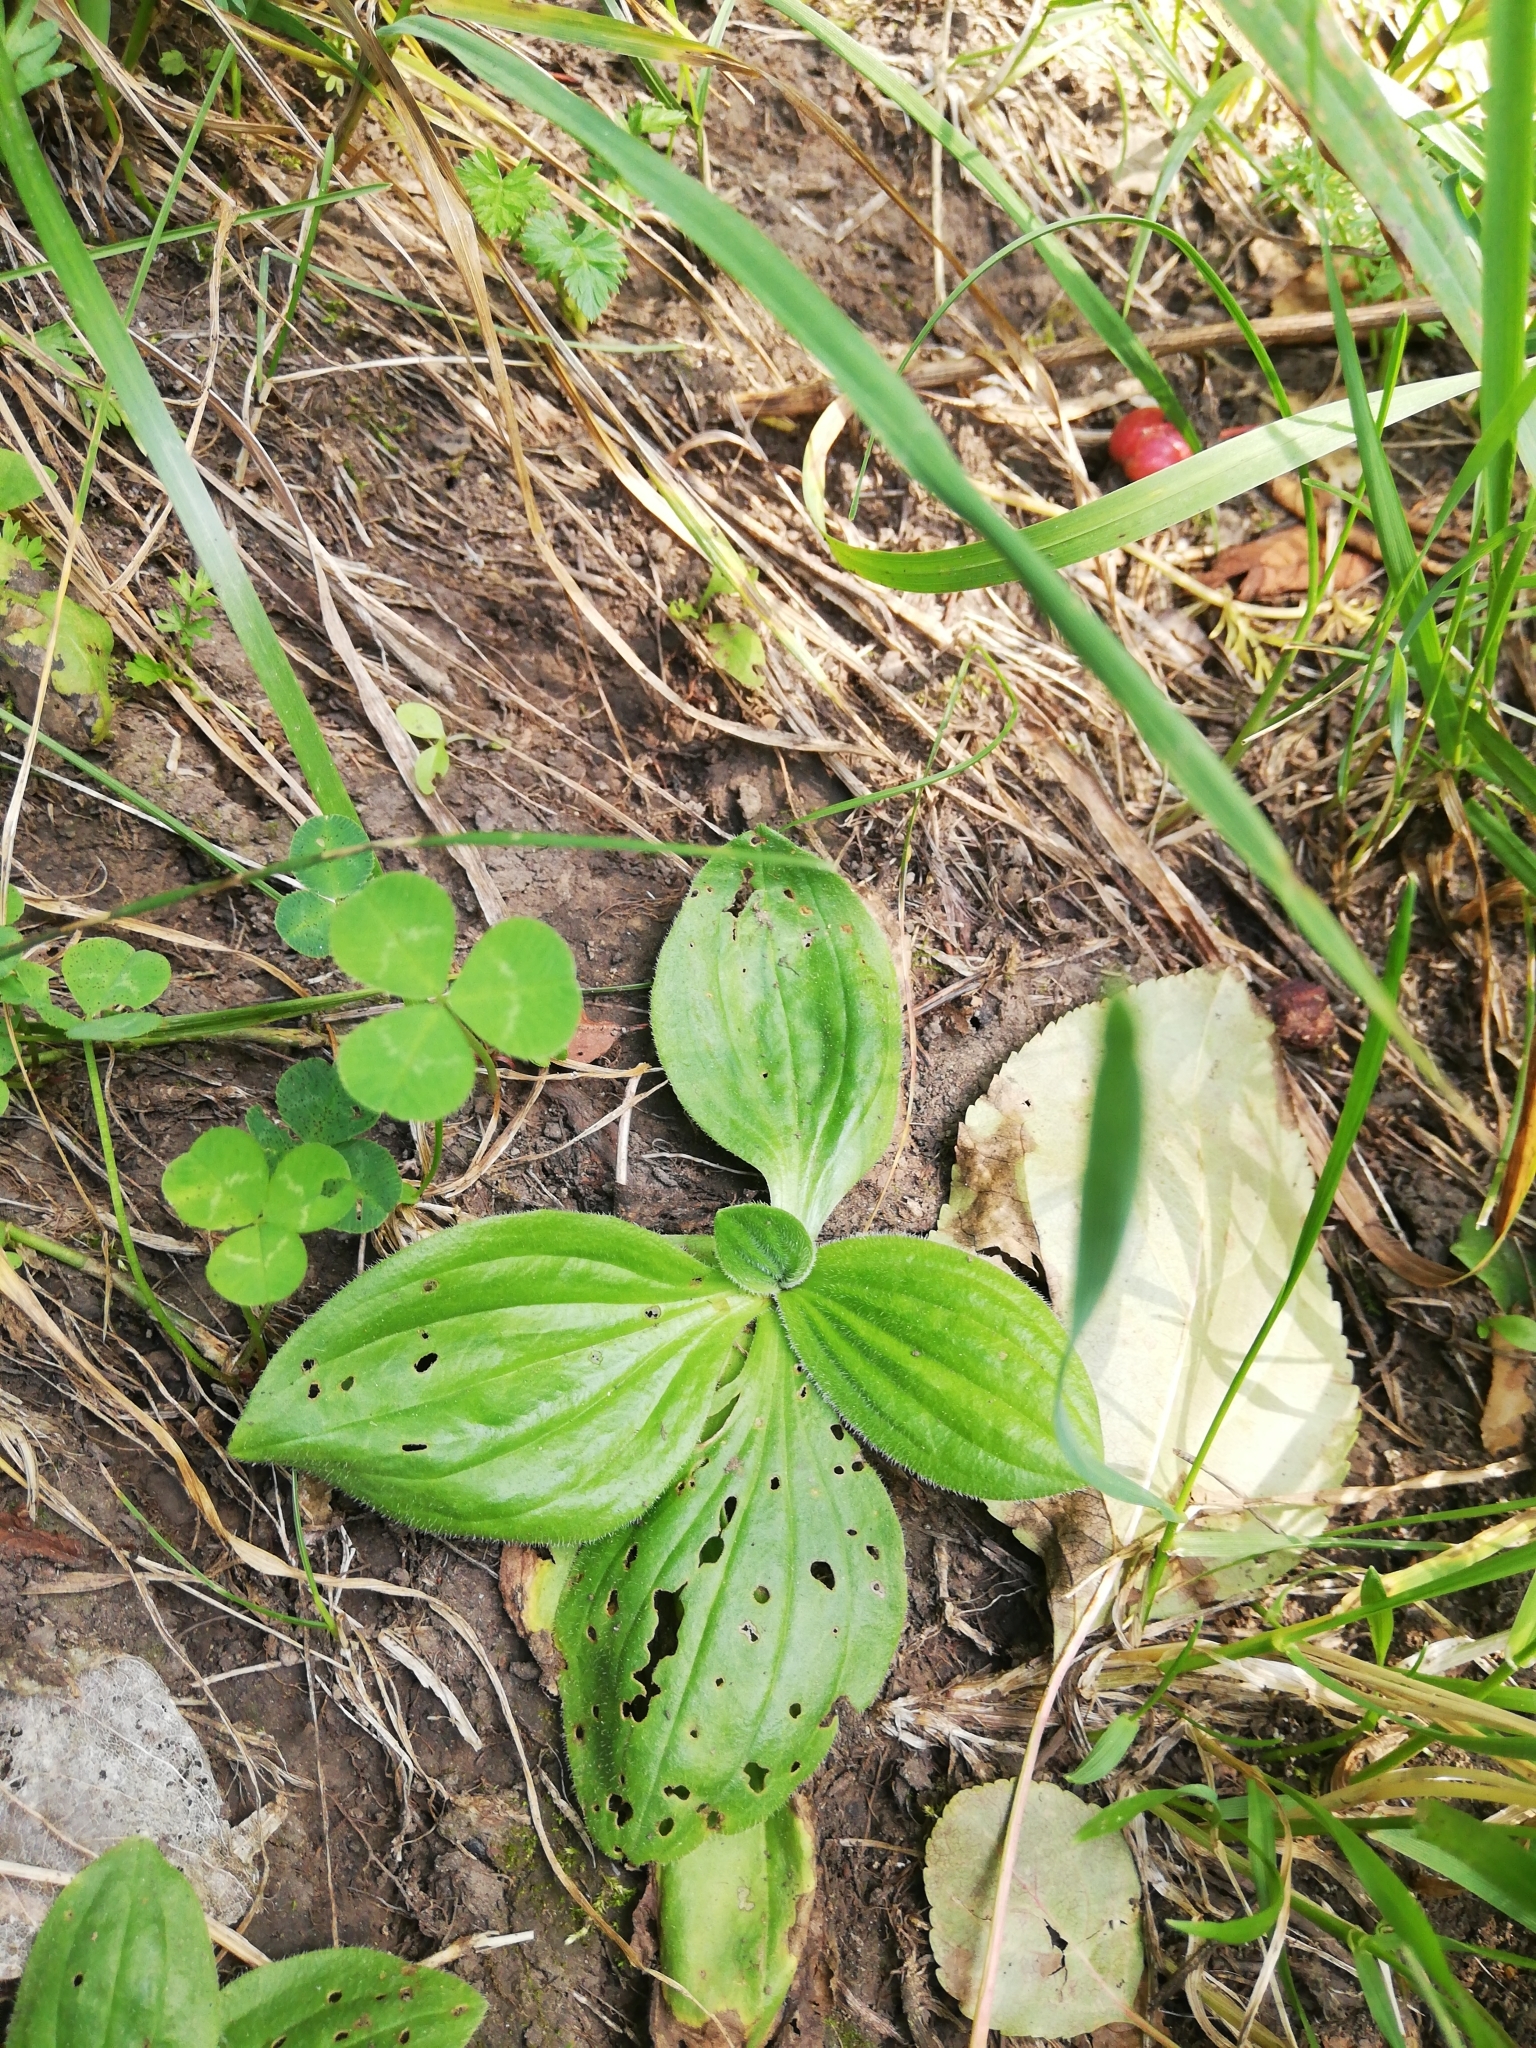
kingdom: Plantae
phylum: Tracheophyta
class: Magnoliopsida
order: Lamiales
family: Plantaginaceae
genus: Plantago
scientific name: Plantago media
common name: Hoary plantain
